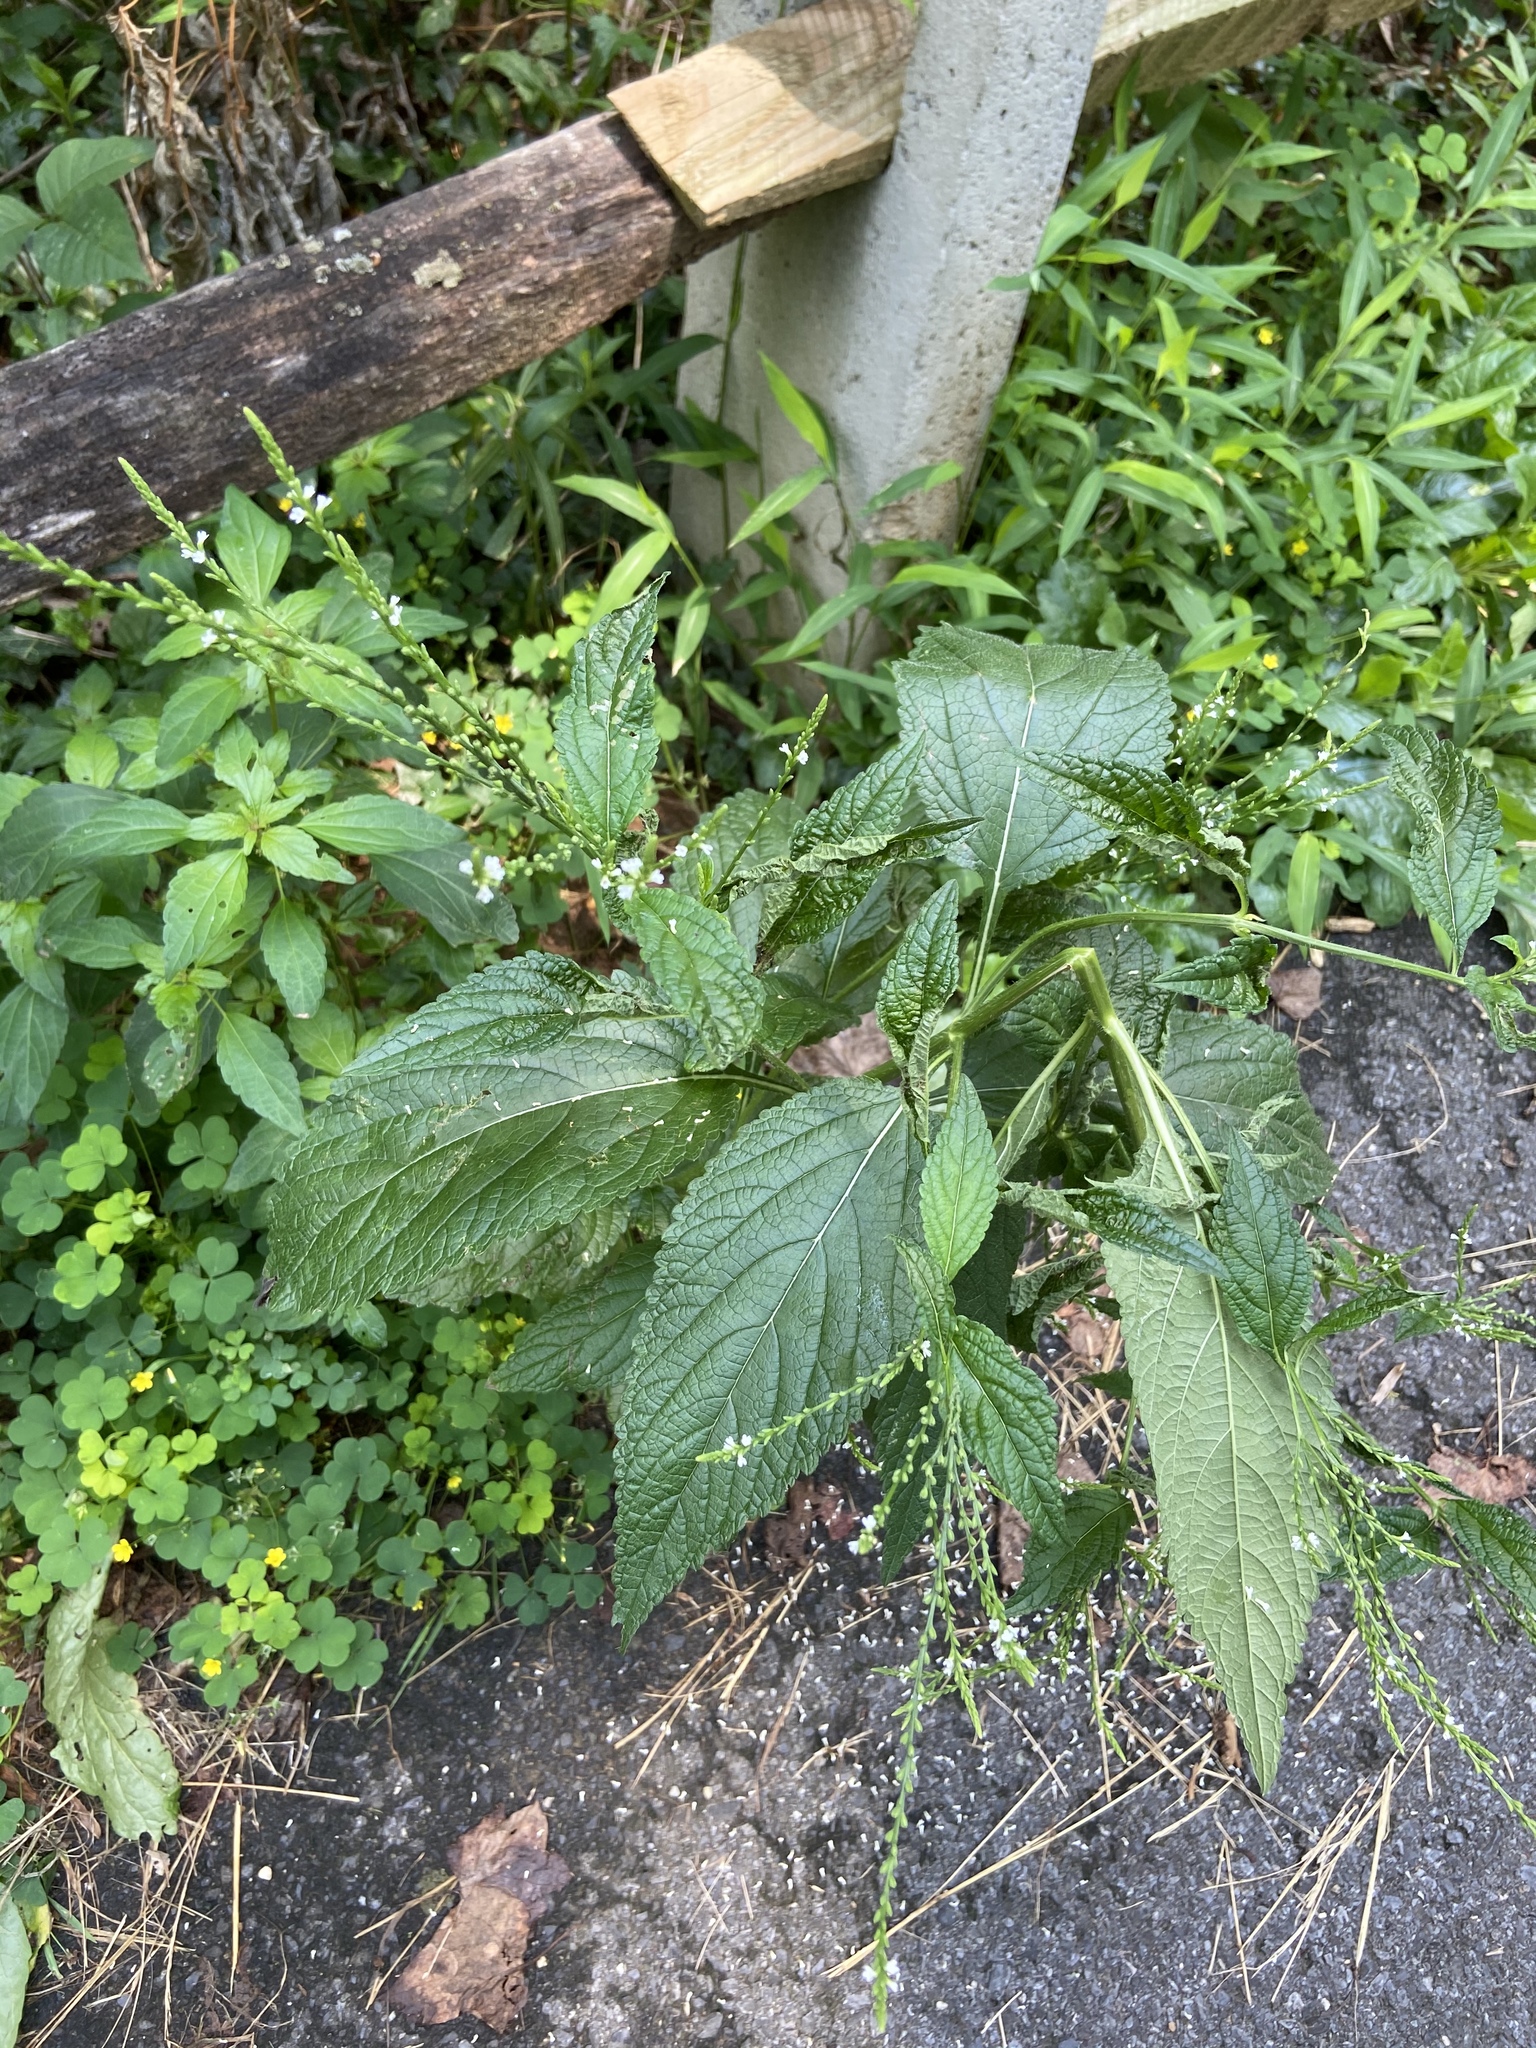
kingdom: Plantae
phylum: Tracheophyta
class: Magnoliopsida
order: Lamiales
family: Verbenaceae
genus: Verbena
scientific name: Verbena urticifolia
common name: Nettle-leaved vervain
